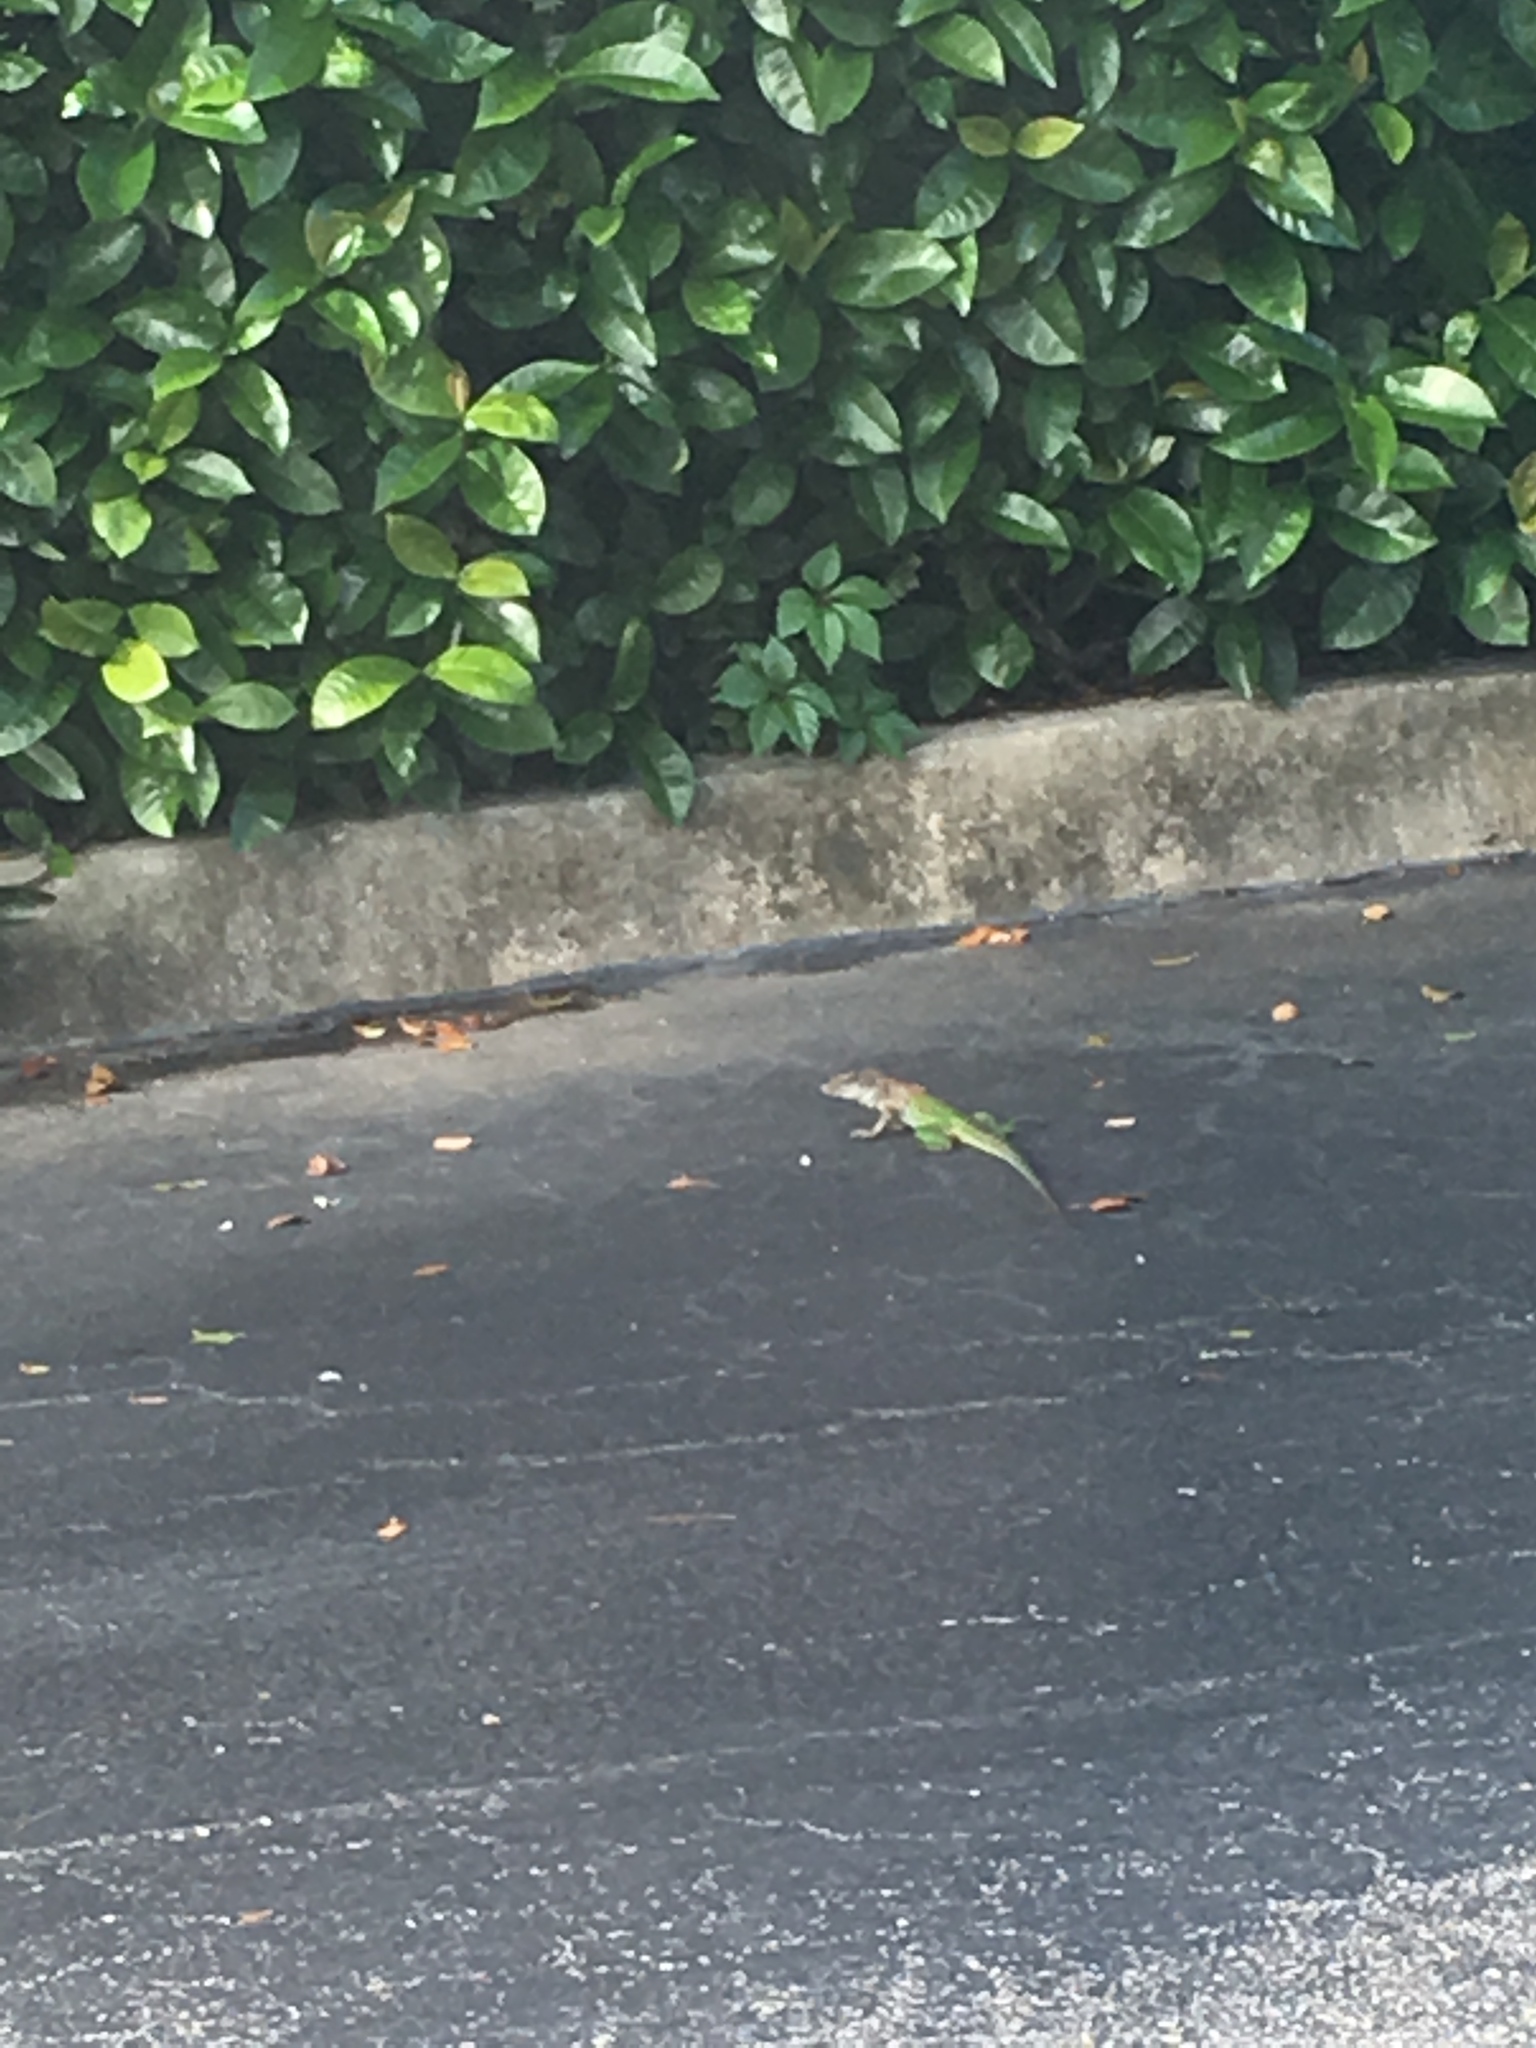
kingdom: Animalia
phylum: Chordata
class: Squamata
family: Teiidae
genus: Ameiva
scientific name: Ameiva ameiva
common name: Giant ameiva
